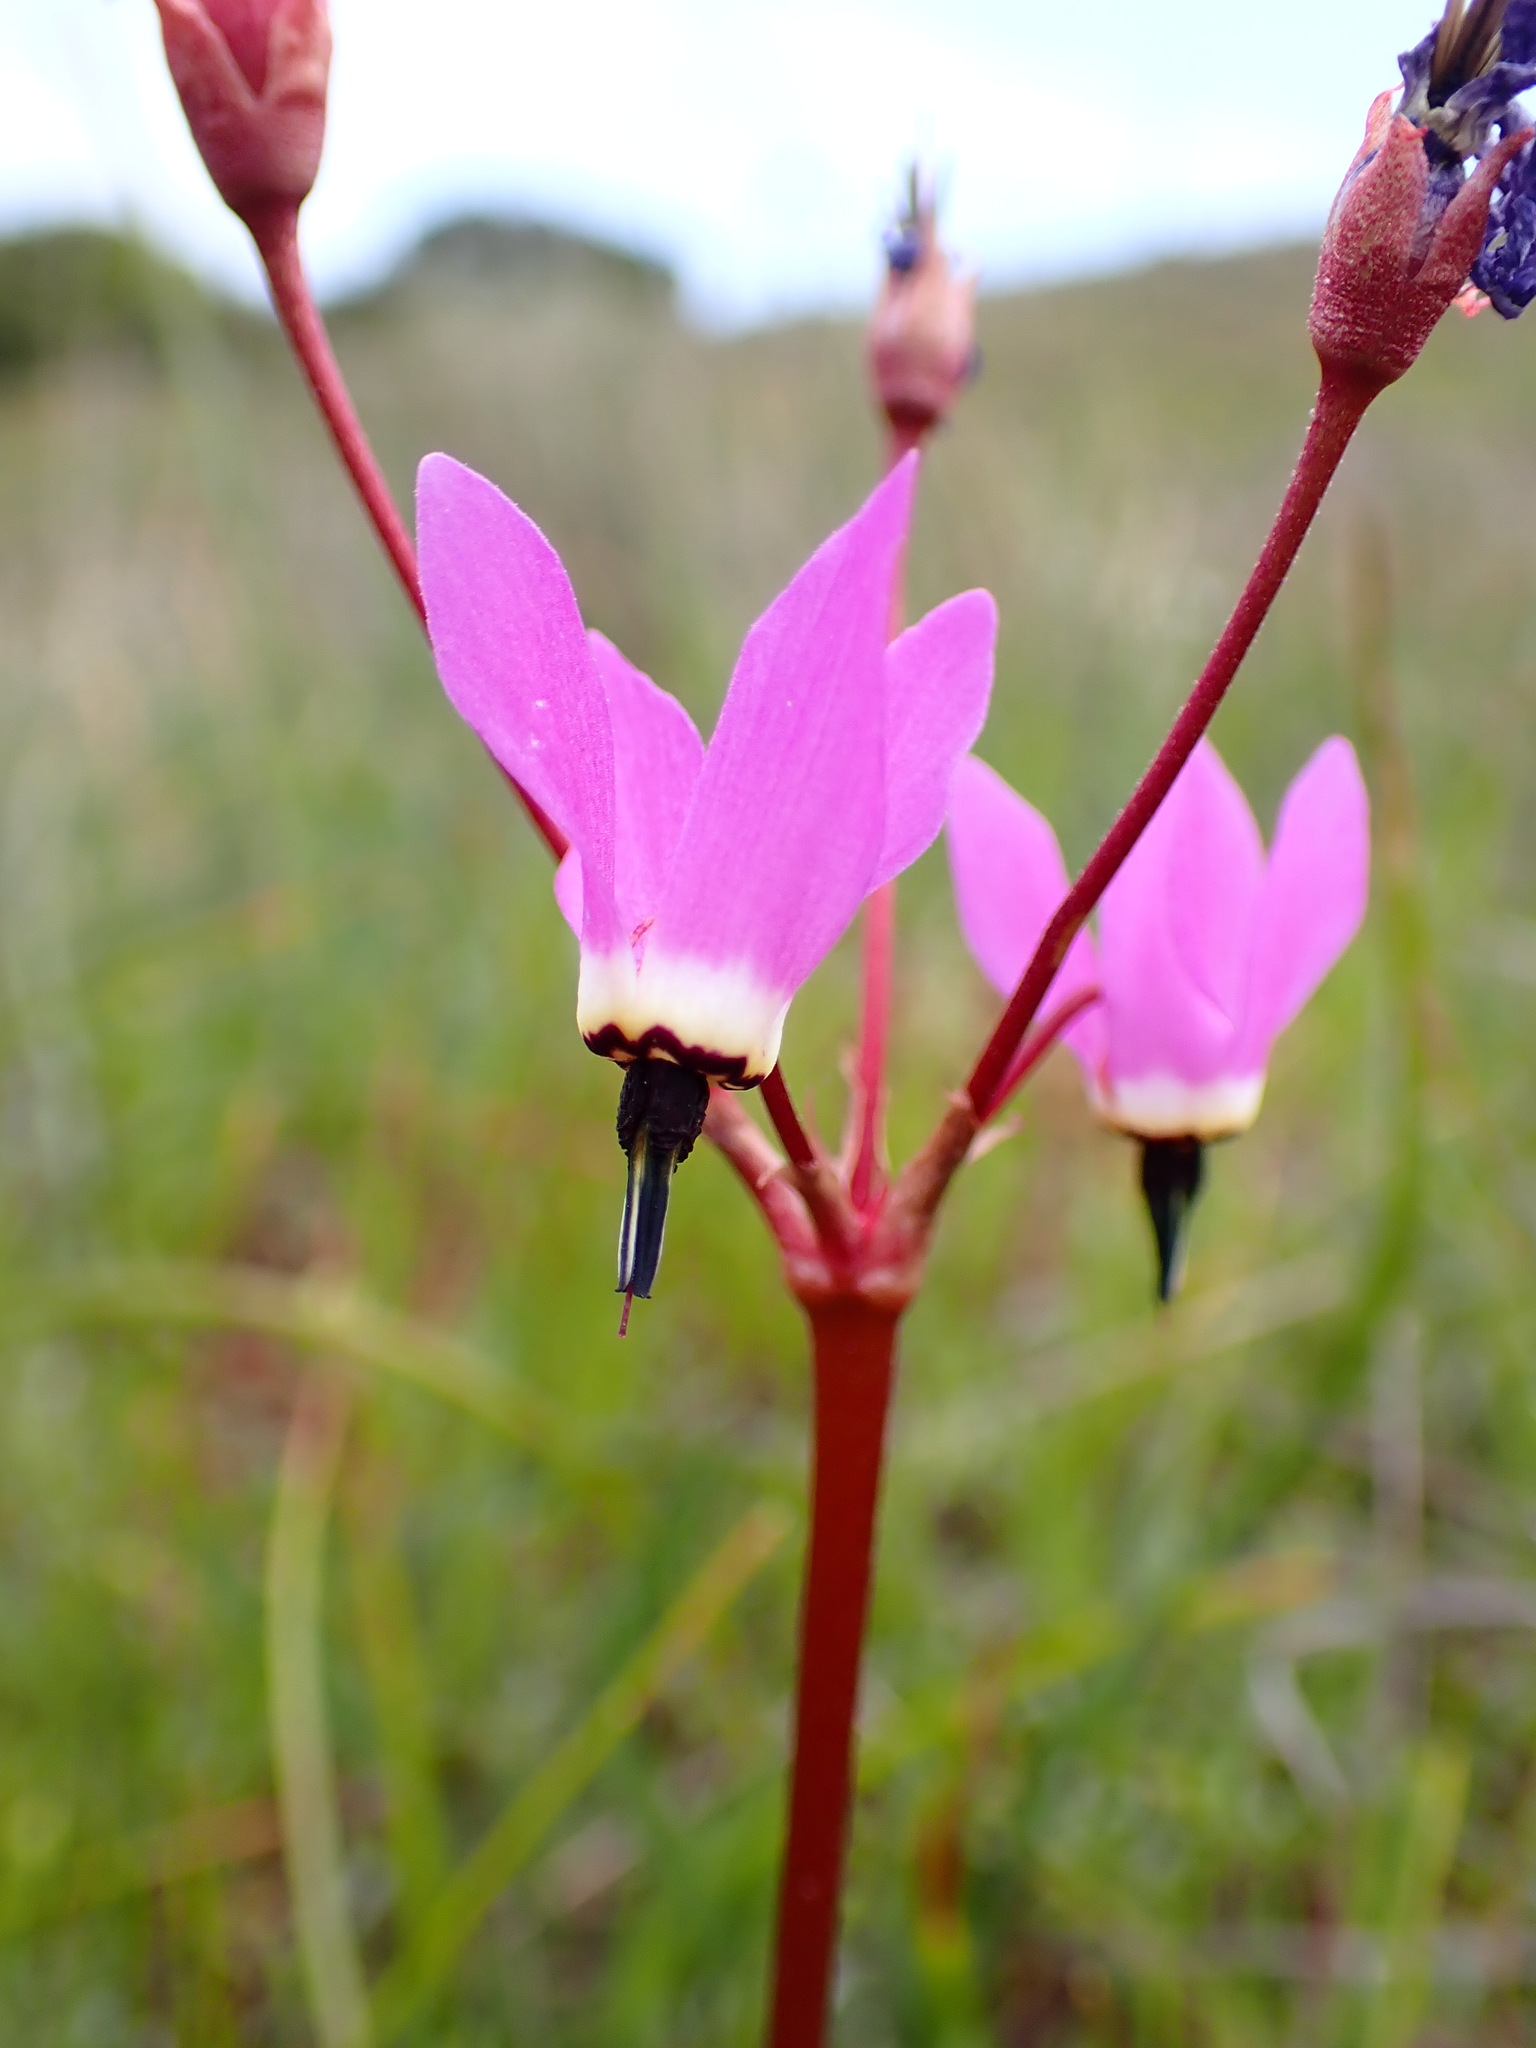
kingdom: Plantae
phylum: Tracheophyta
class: Magnoliopsida
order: Ericales
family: Primulaceae
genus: Dodecatheon
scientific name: Dodecatheon hendersonii
